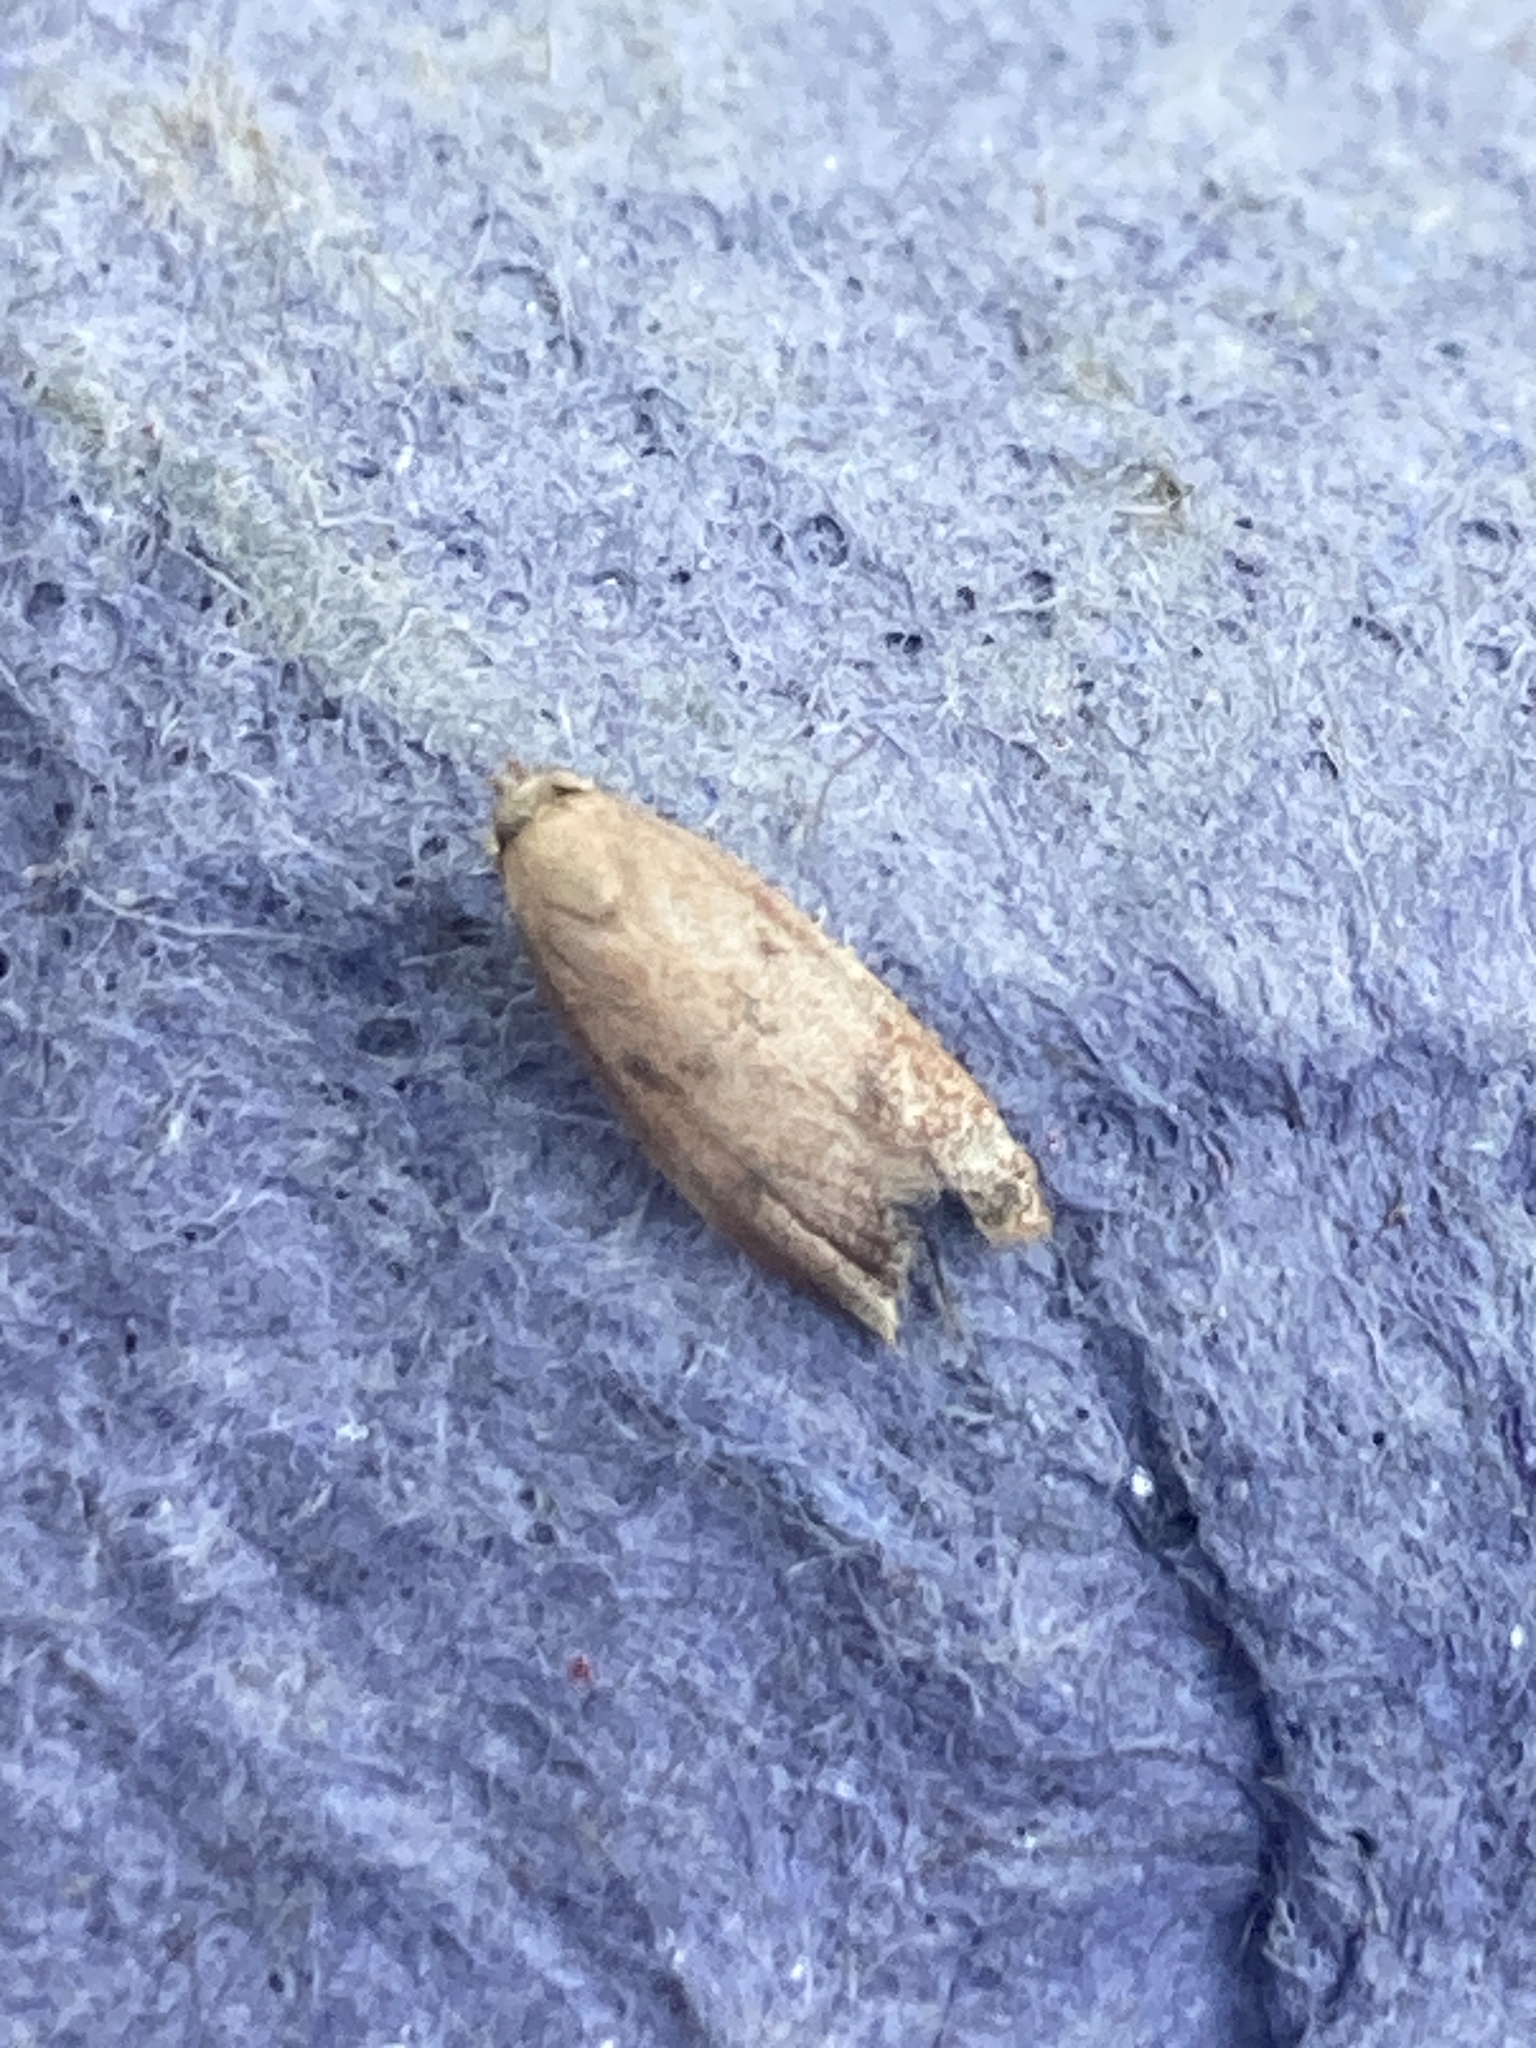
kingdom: Animalia
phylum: Arthropoda
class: Insecta
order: Lepidoptera
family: Oecophoridae
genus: Tachystola
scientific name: Tachystola acroxantha
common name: Ruddy streak
